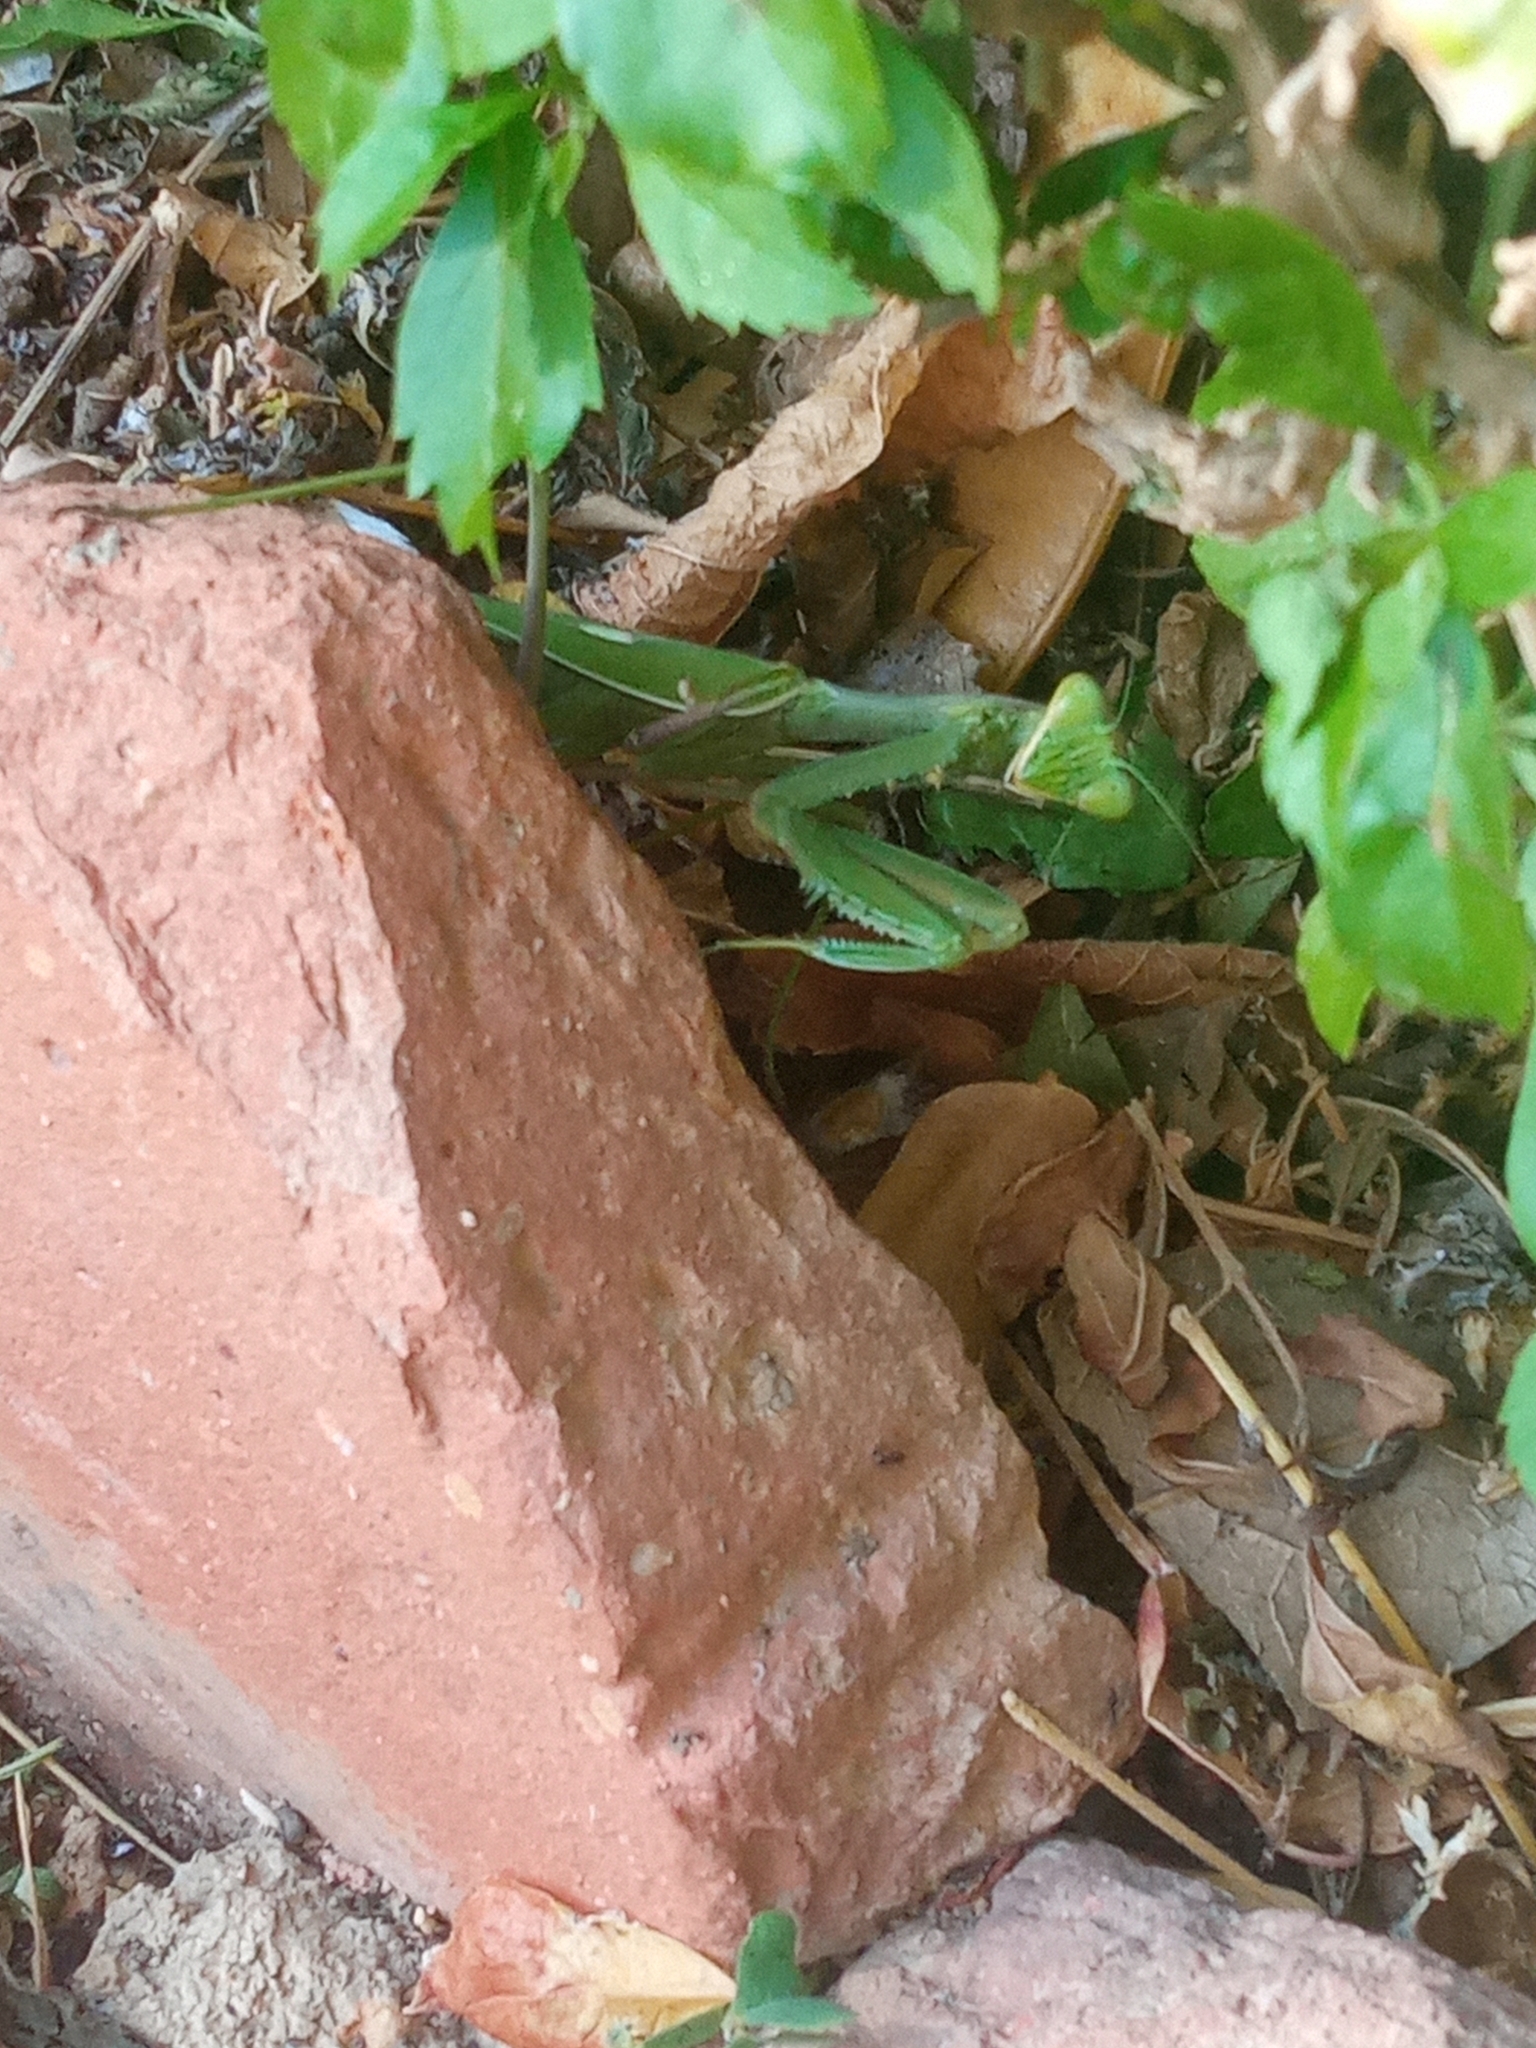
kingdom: Animalia
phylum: Arthropoda
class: Insecta
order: Mantodea
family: Mantidae
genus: Sphodromantis
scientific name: Sphodromantis viridis
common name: Giant african mantis
